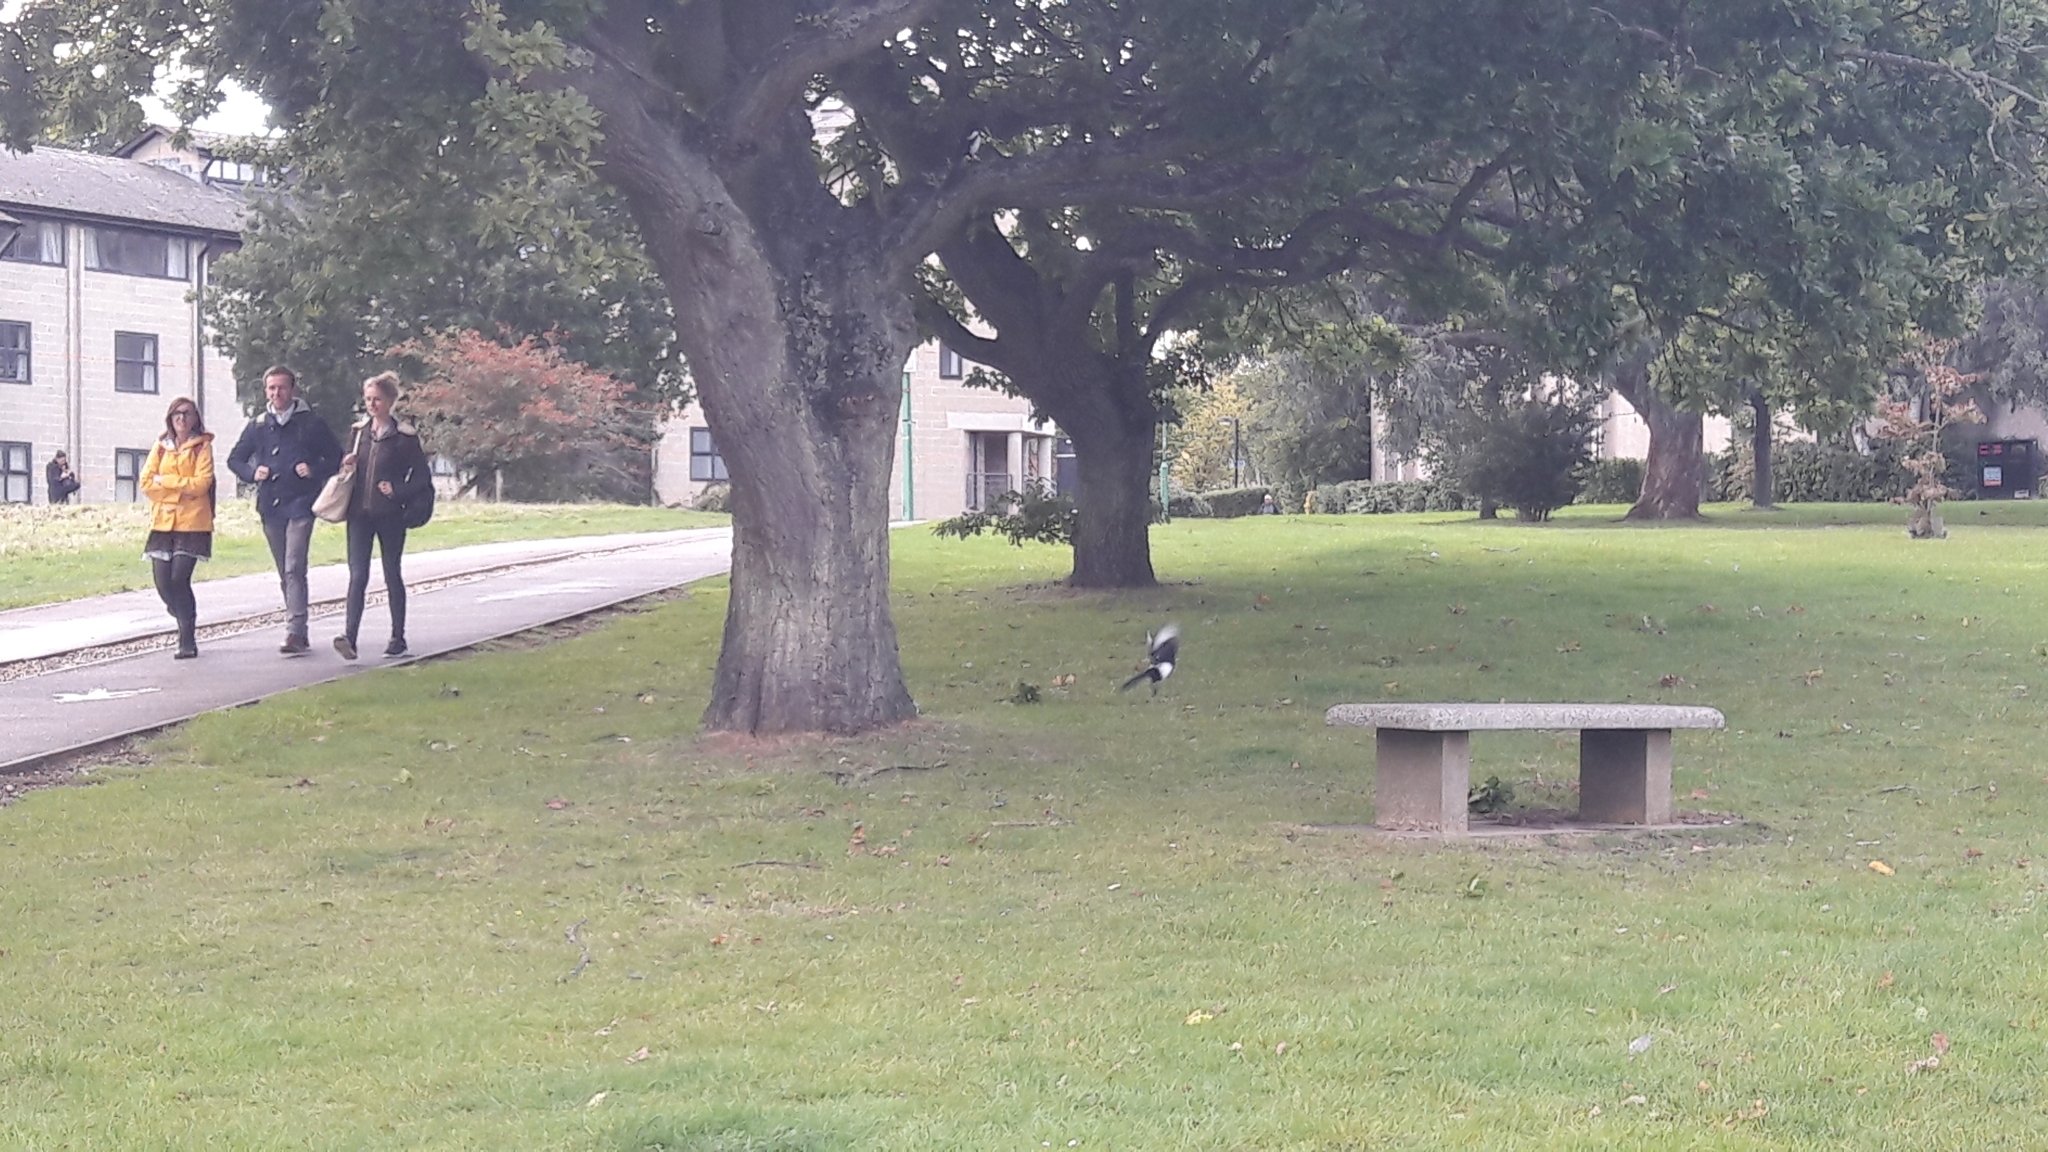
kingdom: Animalia
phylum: Chordata
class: Aves
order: Passeriformes
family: Corvidae
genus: Pica
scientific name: Pica pica
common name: Eurasian magpie
